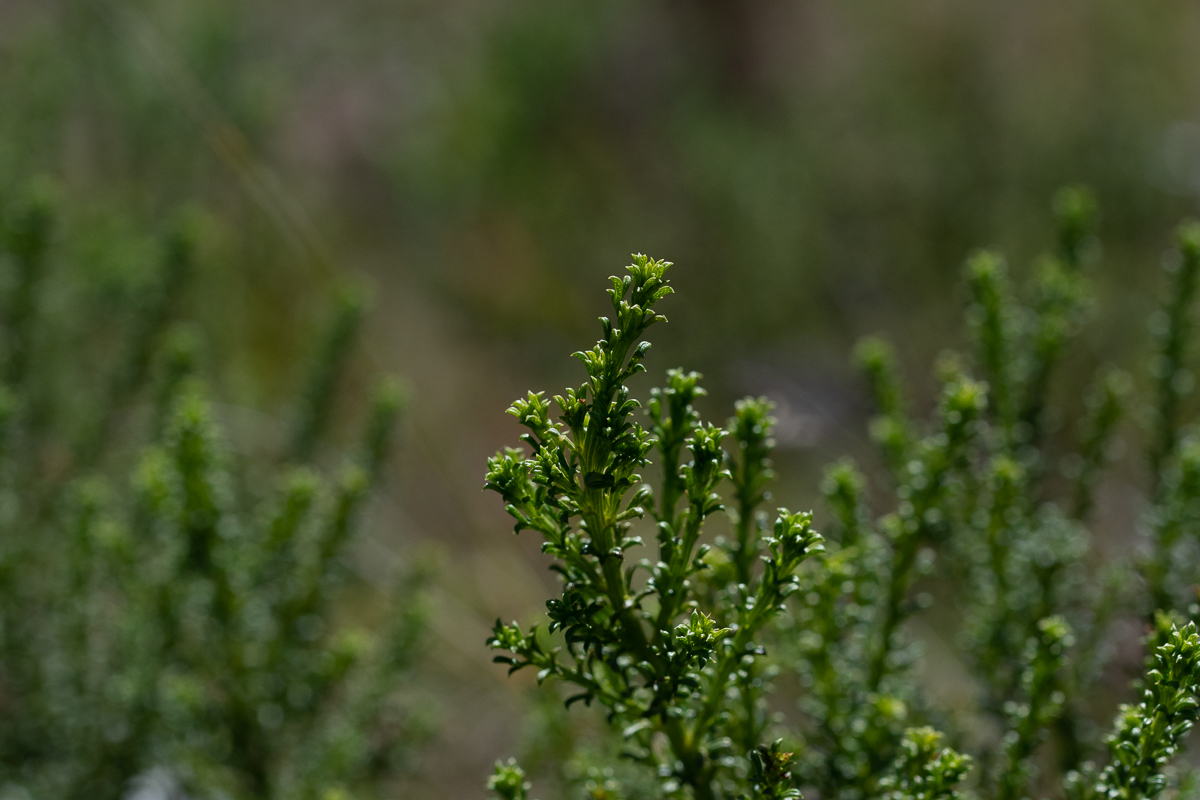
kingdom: Plantae
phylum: Tracheophyta
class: Magnoliopsida
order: Fabales
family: Fabaceae
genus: Psoralea
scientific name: Psoralea aculeata
